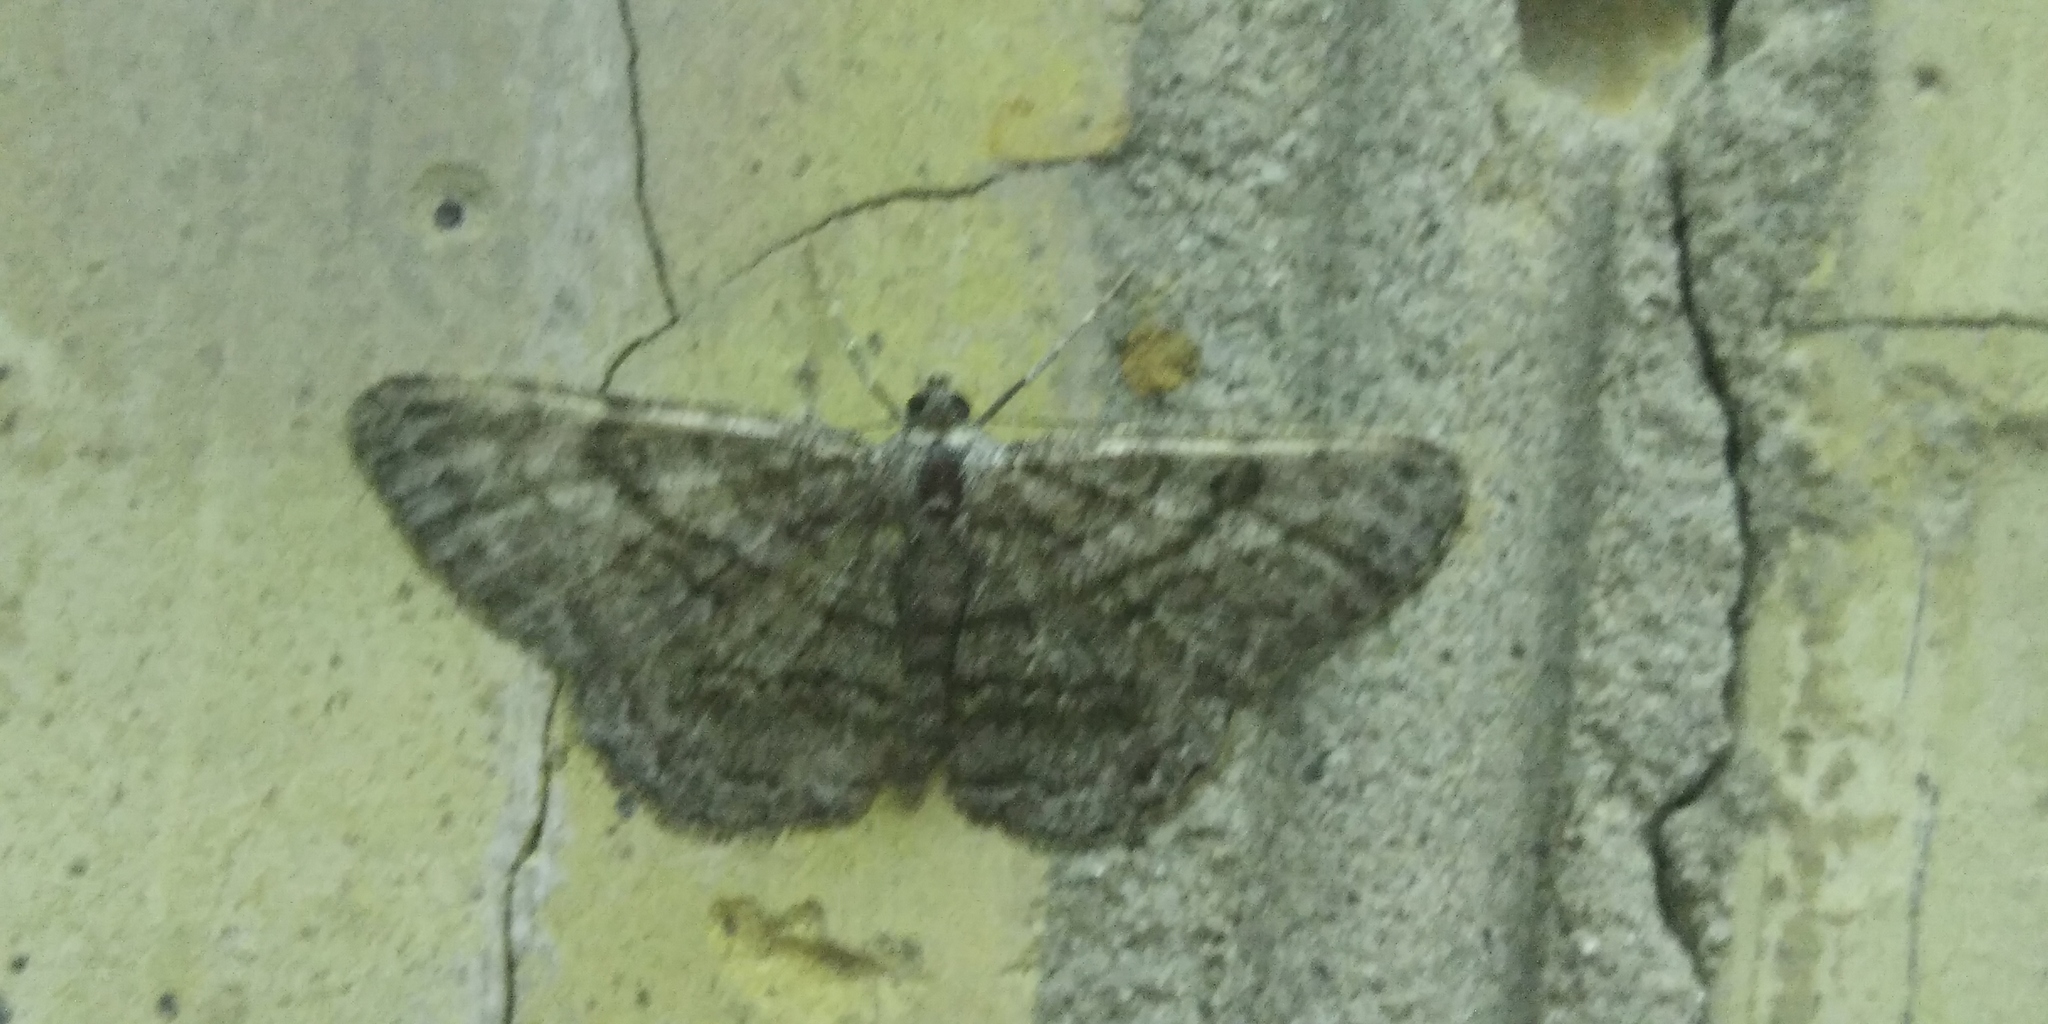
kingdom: Animalia
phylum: Arthropoda
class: Insecta
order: Lepidoptera
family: Geometridae
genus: Peribatodes
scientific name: Peribatodes rhomboidaria
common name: Willow beauty
